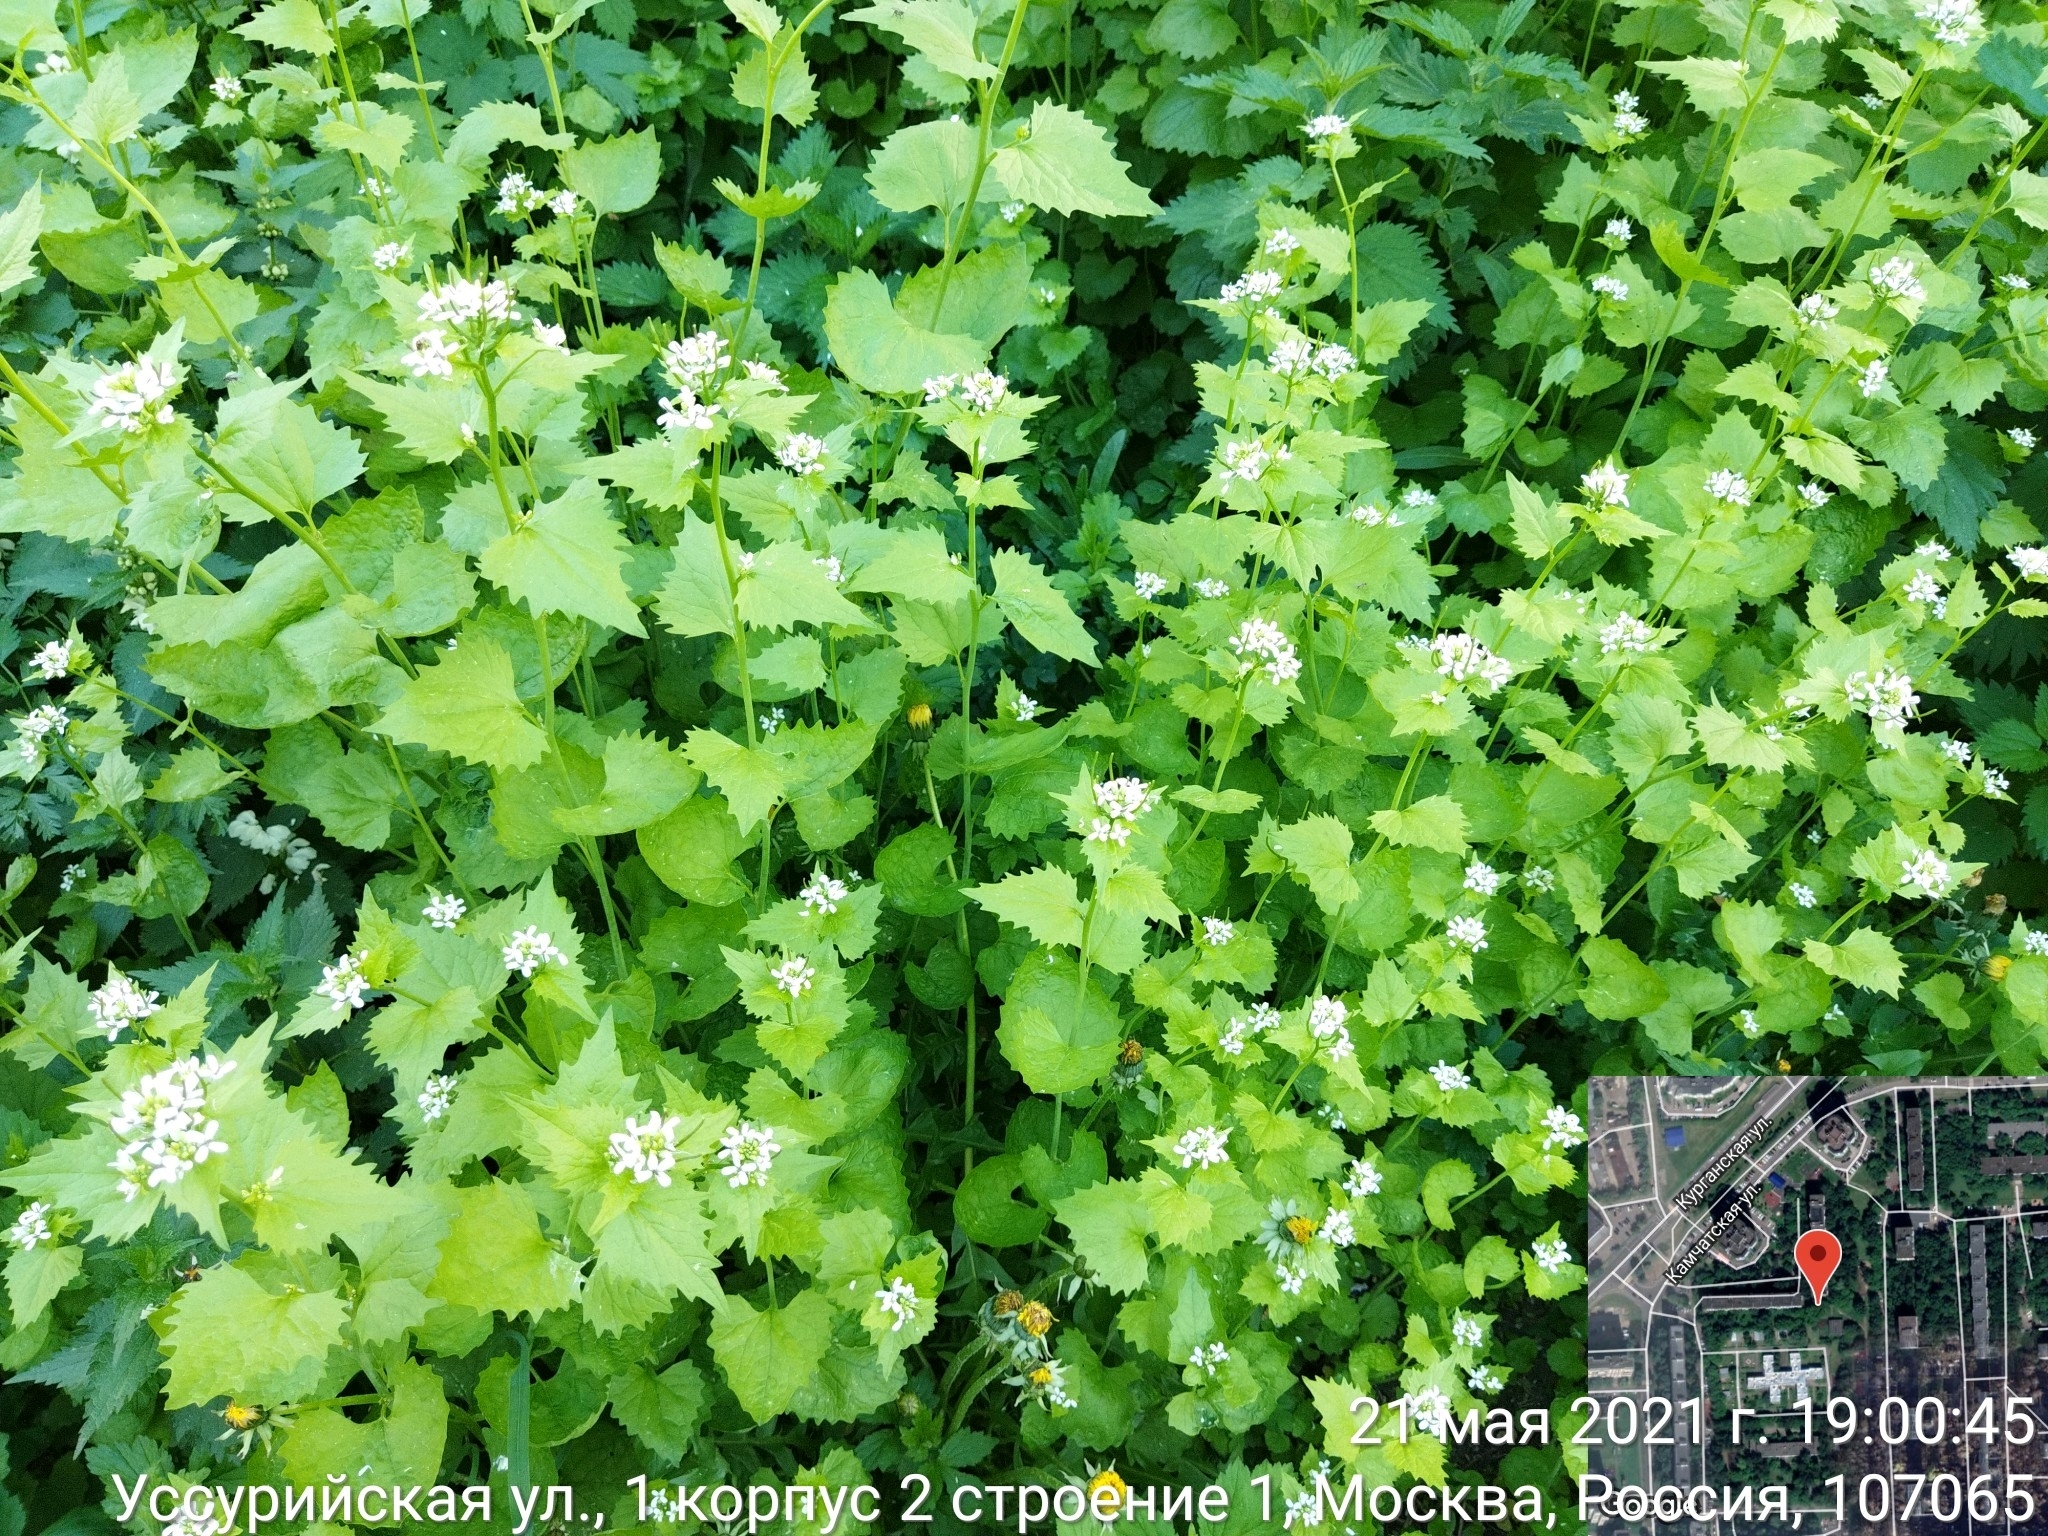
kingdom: Plantae
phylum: Tracheophyta
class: Magnoliopsida
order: Brassicales
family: Brassicaceae
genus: Alliaria
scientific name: Alliaria petiolata
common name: Garlic mustard
